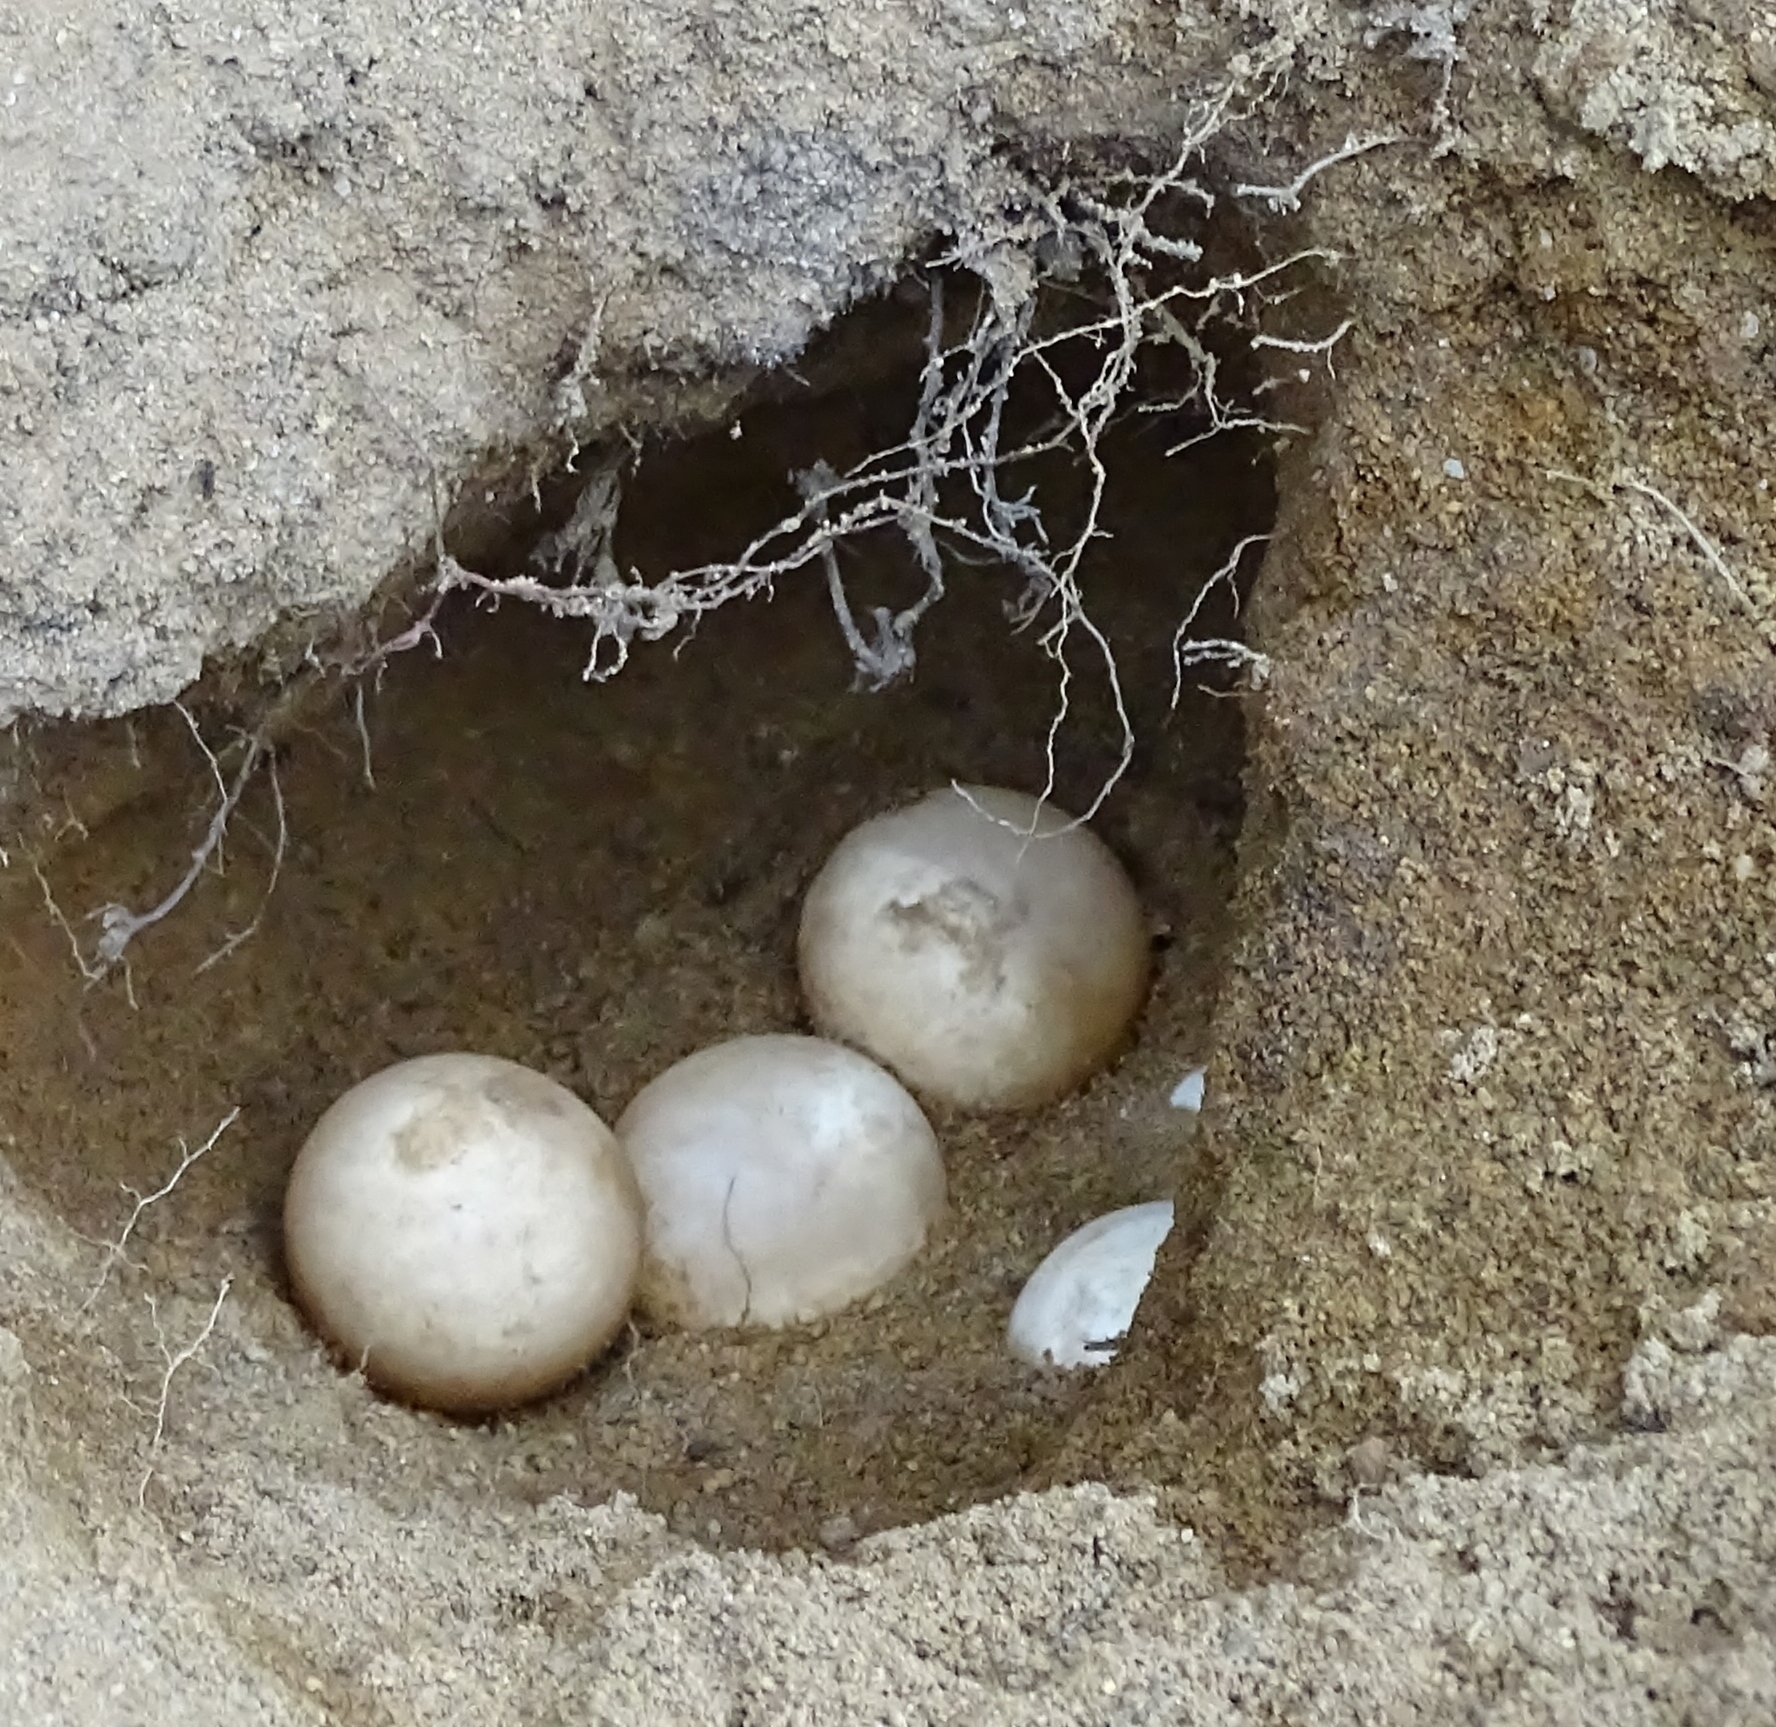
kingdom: Animalia
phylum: Chordata
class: Testudines
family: Chelydridae
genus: Chelydra
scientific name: Chelydra serpentina
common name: Common snapping turtle
